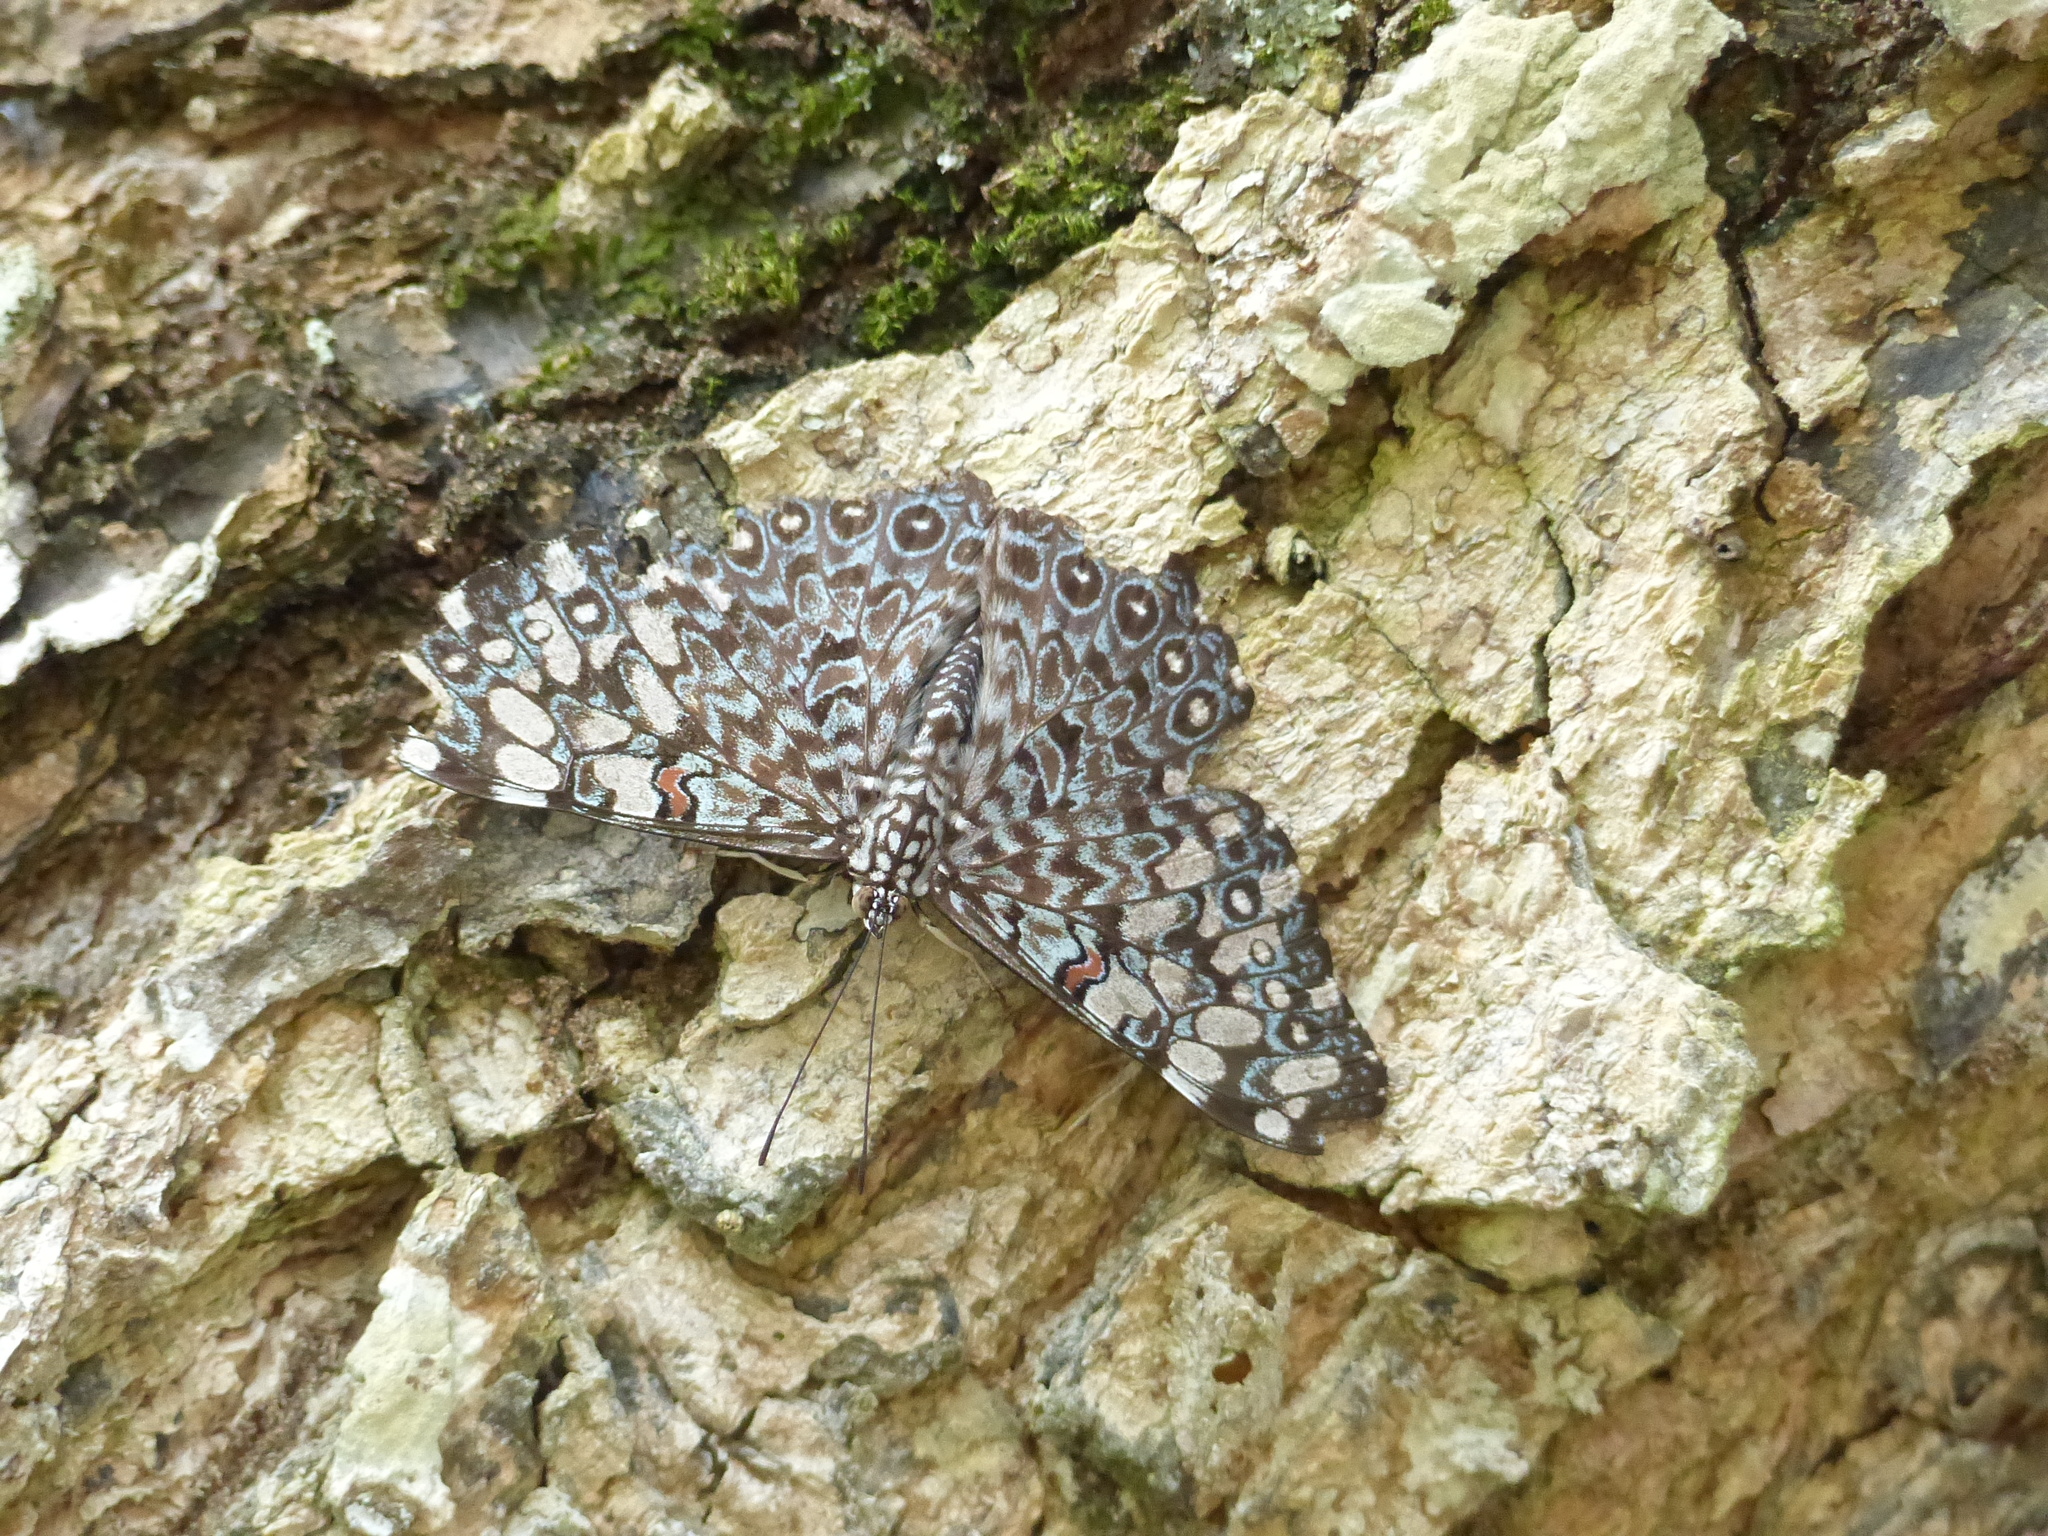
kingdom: Animalia
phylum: Arthropoda
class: Insecta
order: Lepidoptera
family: Nymphalidae
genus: Hamadryas
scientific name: Hamadryas feronia
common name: Variable cracker
